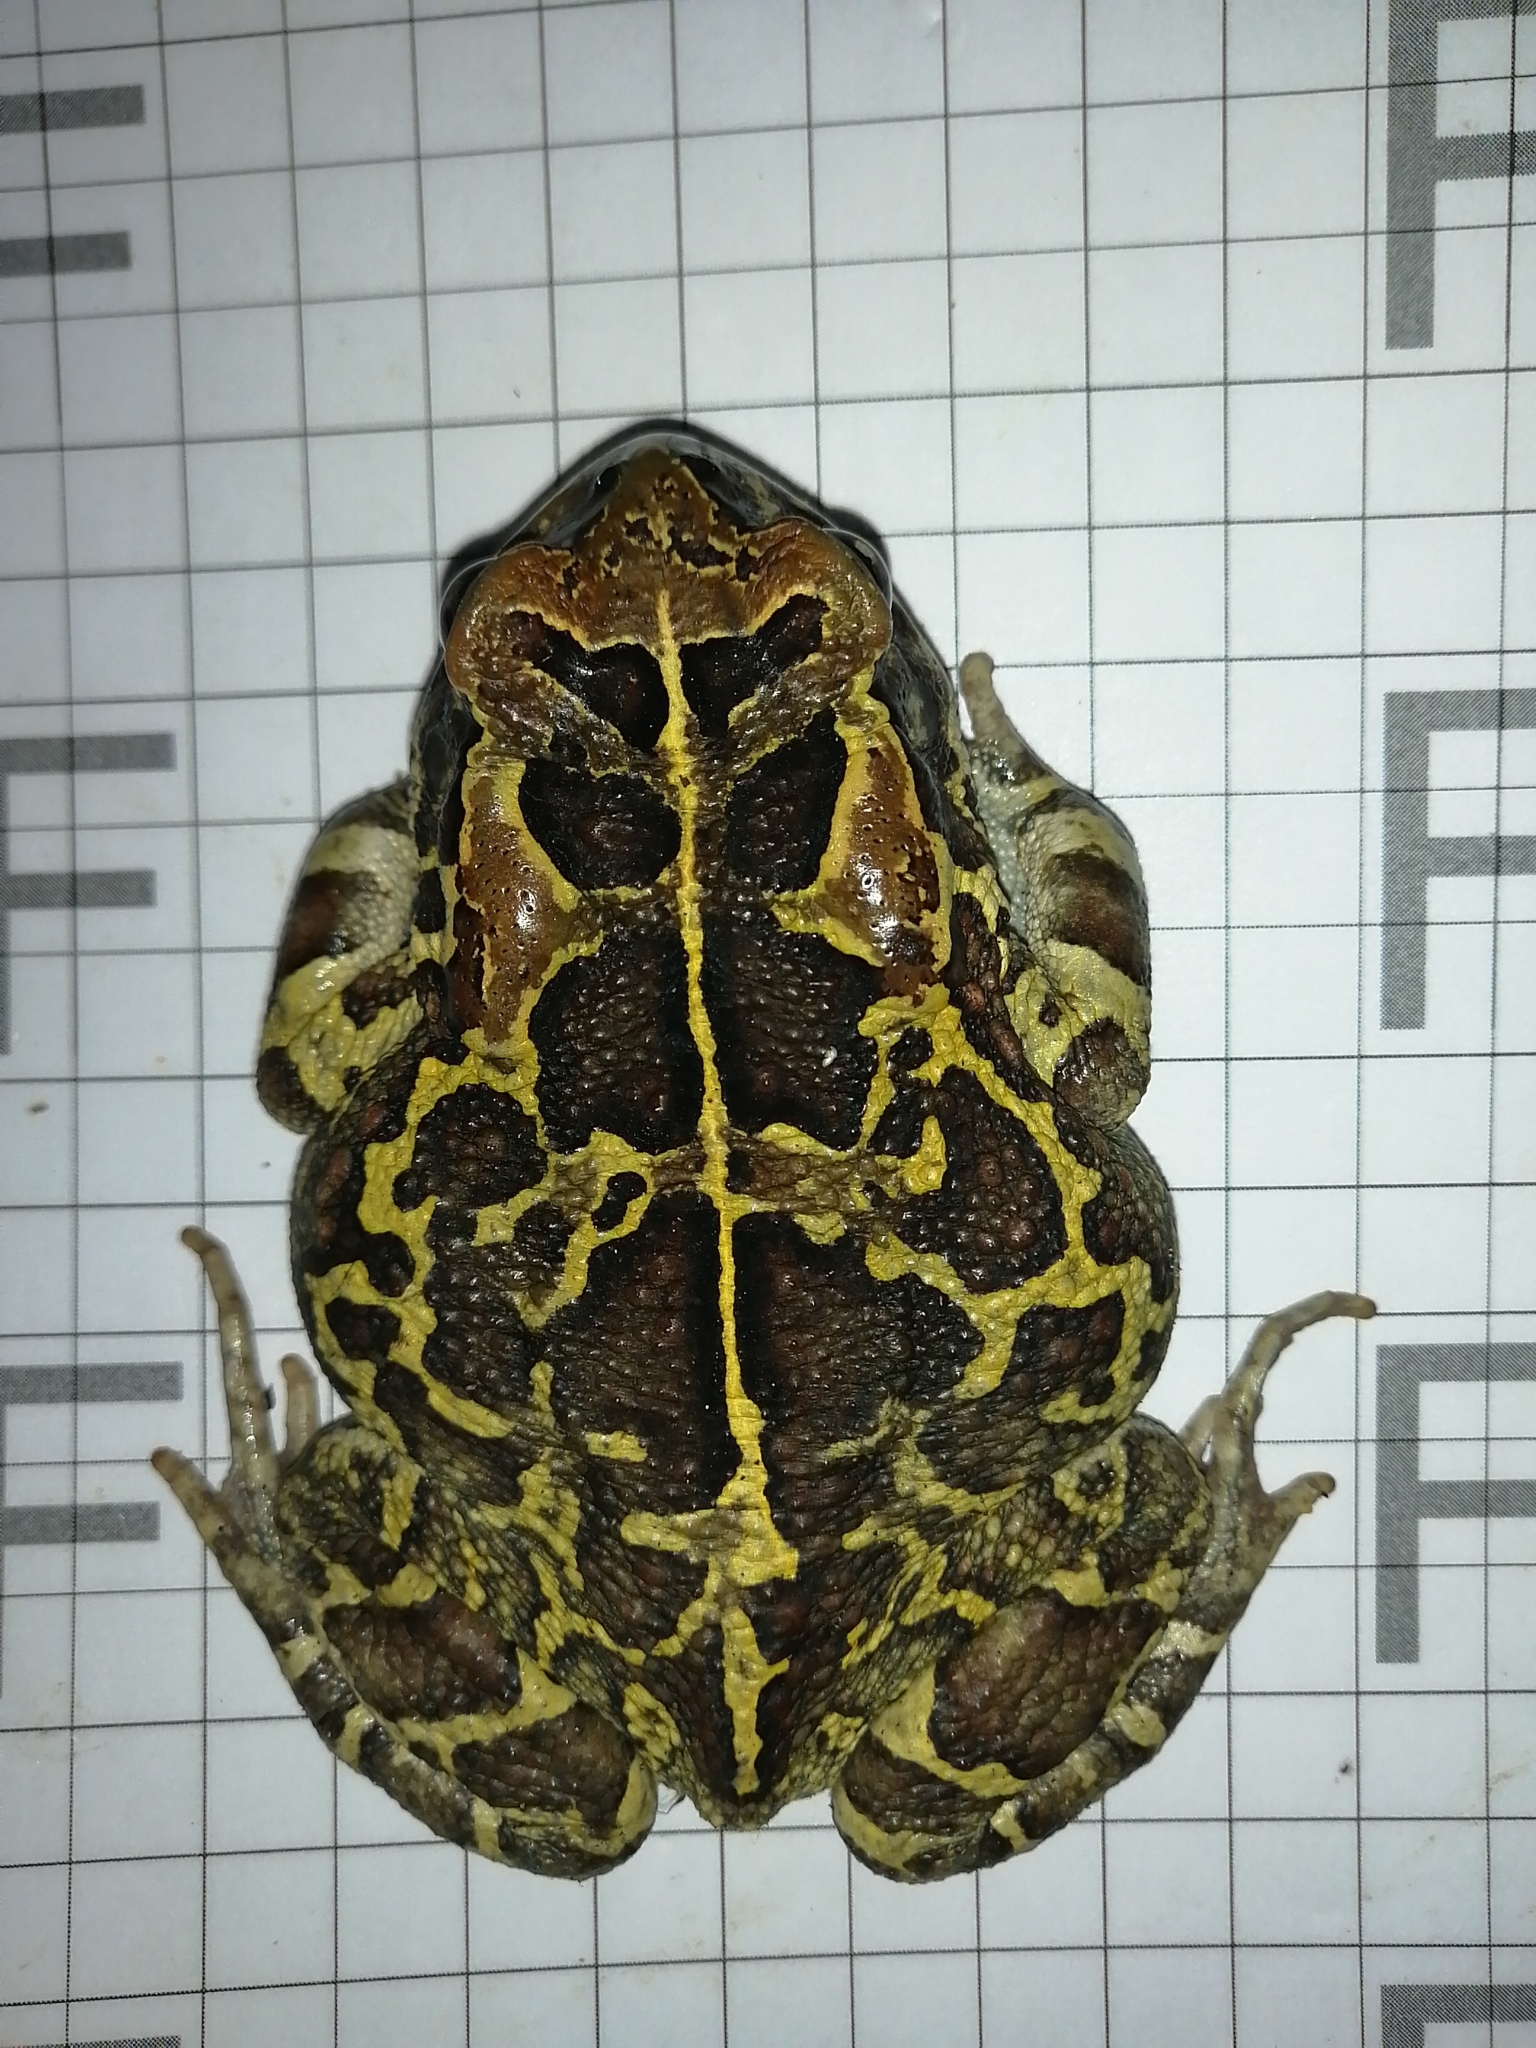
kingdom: Animalia
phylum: Chordata
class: Amphibia
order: Anura
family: Bufonidae
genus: Sclerophrys
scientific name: Sclerophrys pantherina
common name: Panther toad
